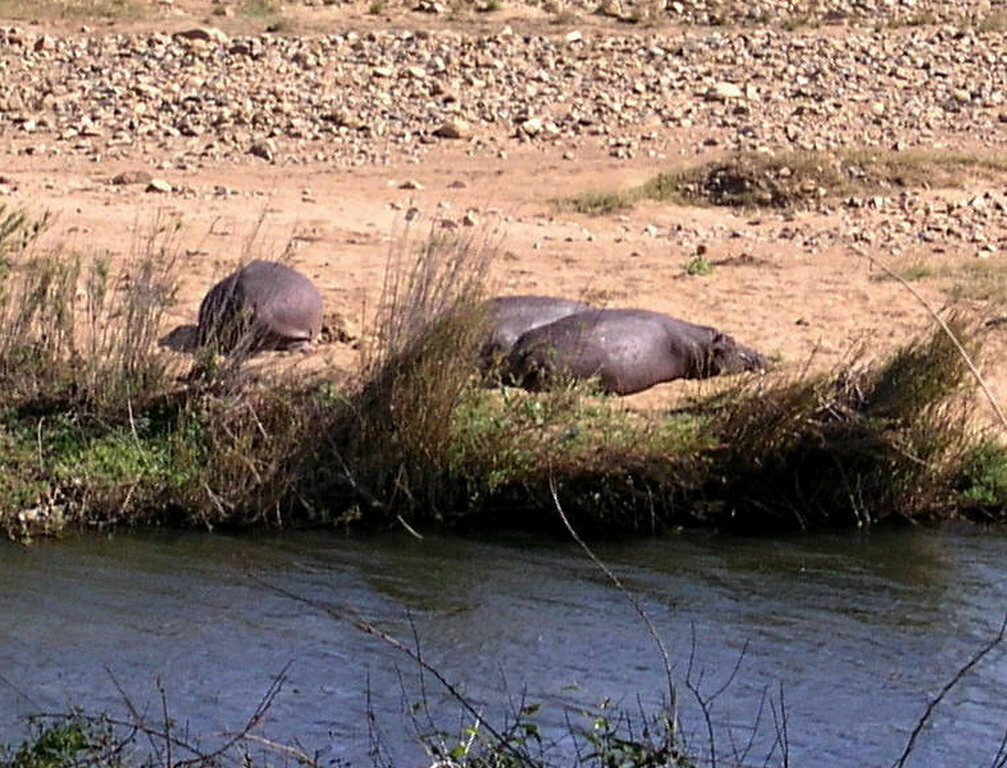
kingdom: Animalia
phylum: Chordata
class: Mammalia
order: Artiodactyla
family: Hippopotamidae
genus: Hippopotamus
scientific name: Hippopotamus amphibius
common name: Common hippopotamus
